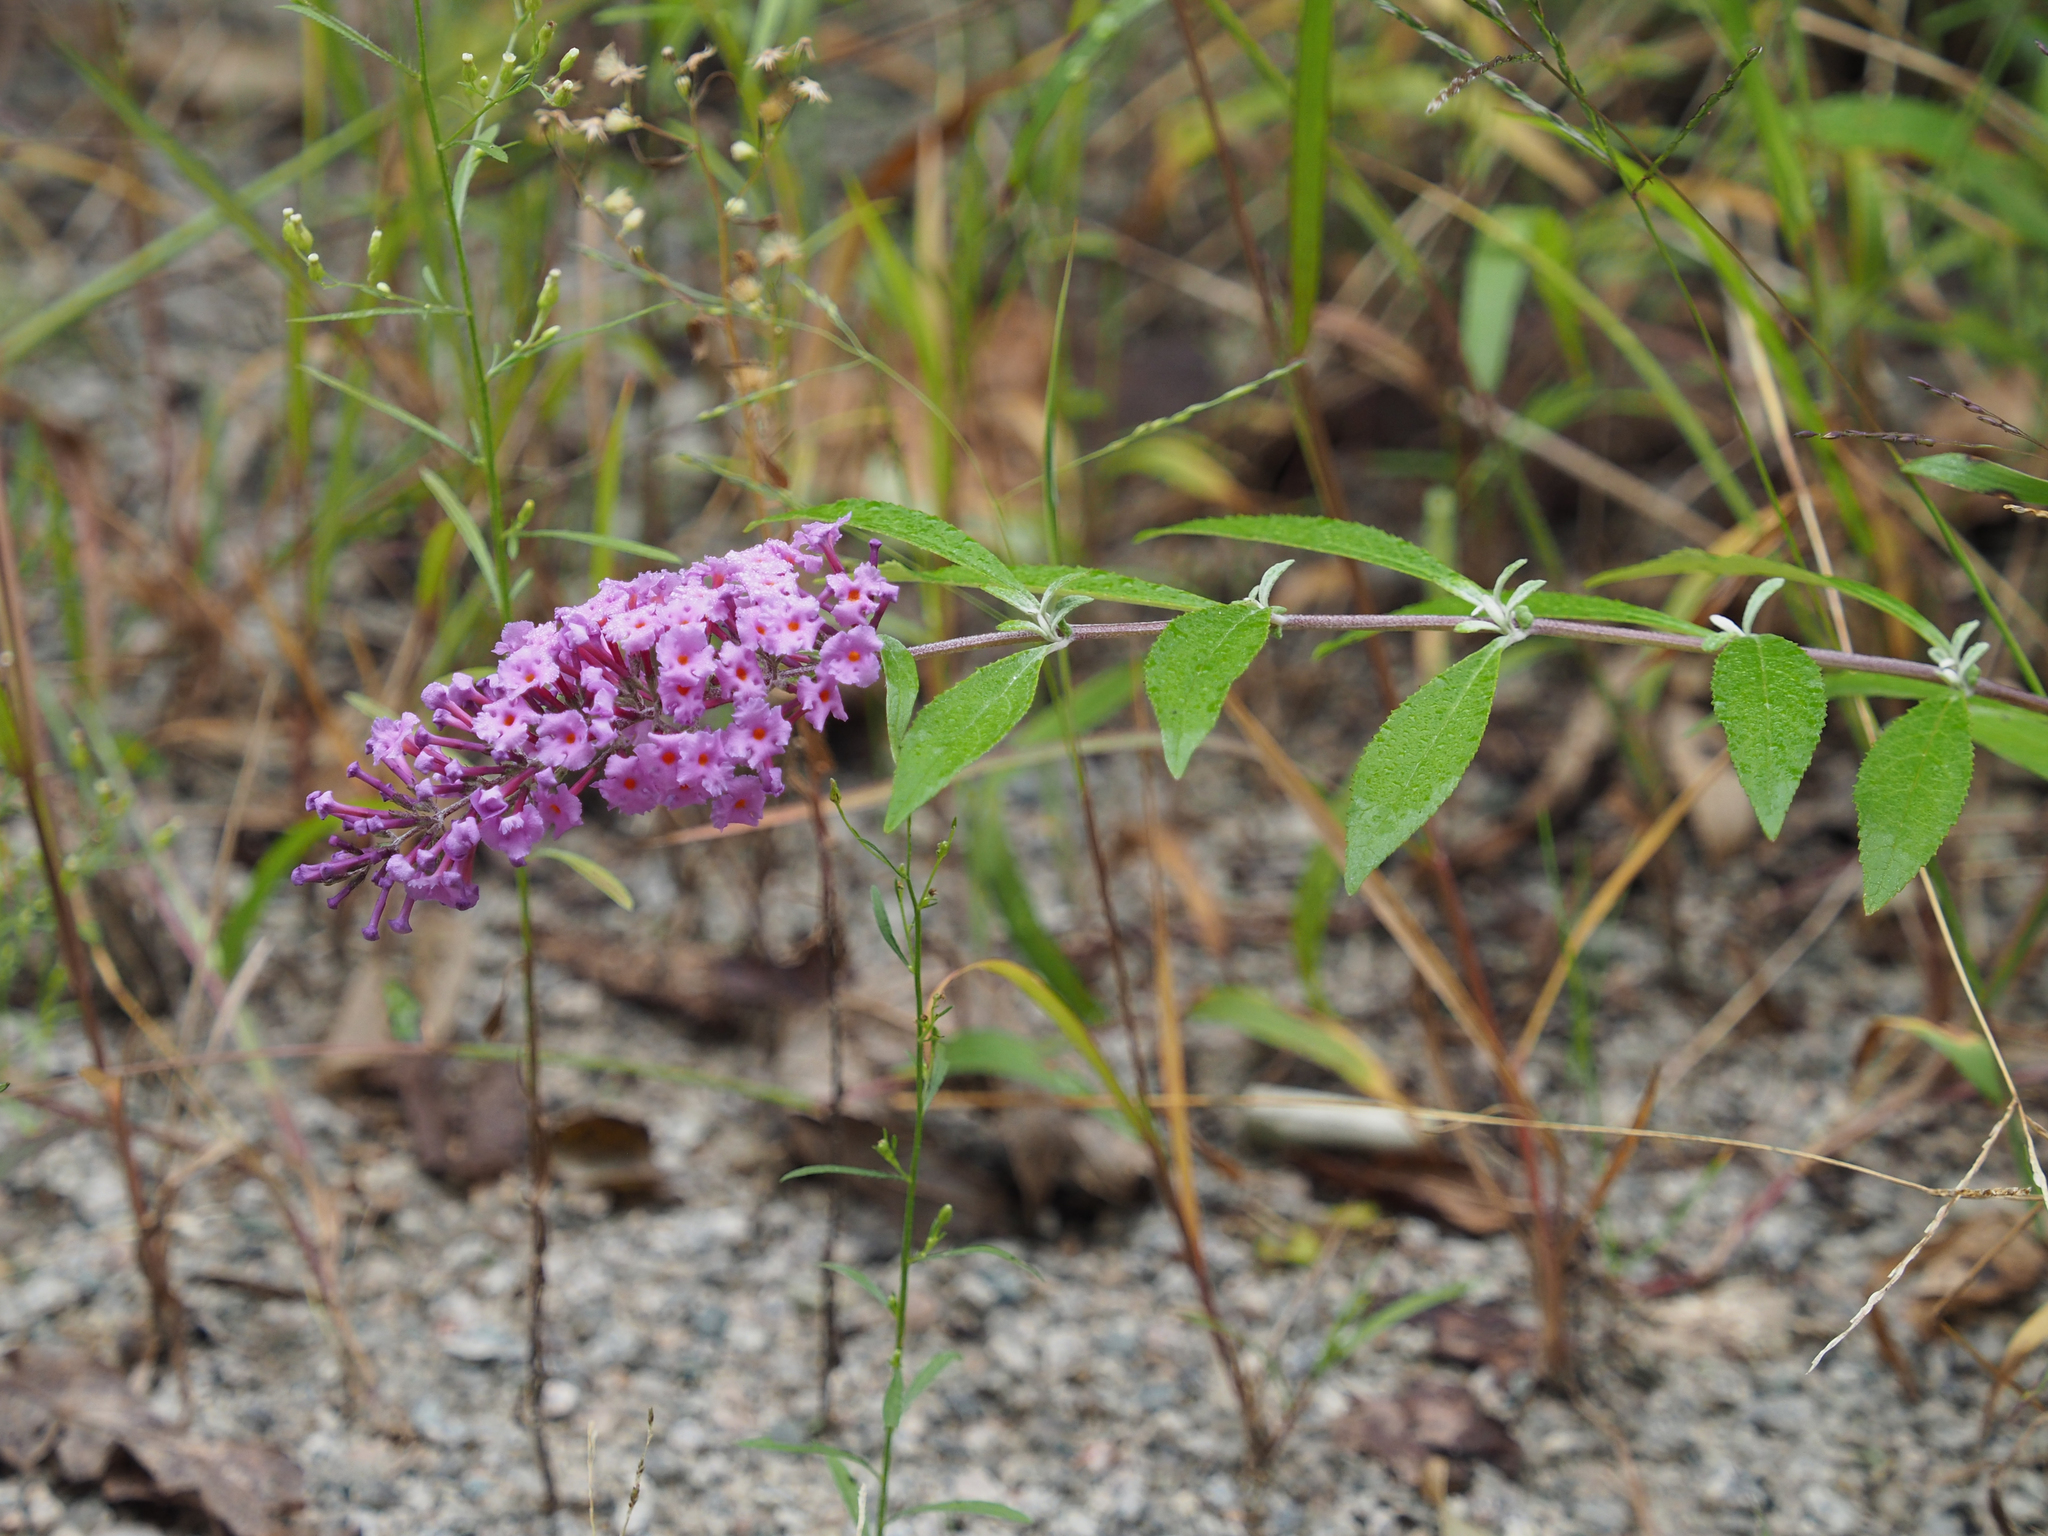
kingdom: Plantae
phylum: Tracheophyta
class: Magnoliopsida
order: Lamiales
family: Scrophulariaceae
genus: Buddleja
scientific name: Buddleja davidii
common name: Butterfly-bush
